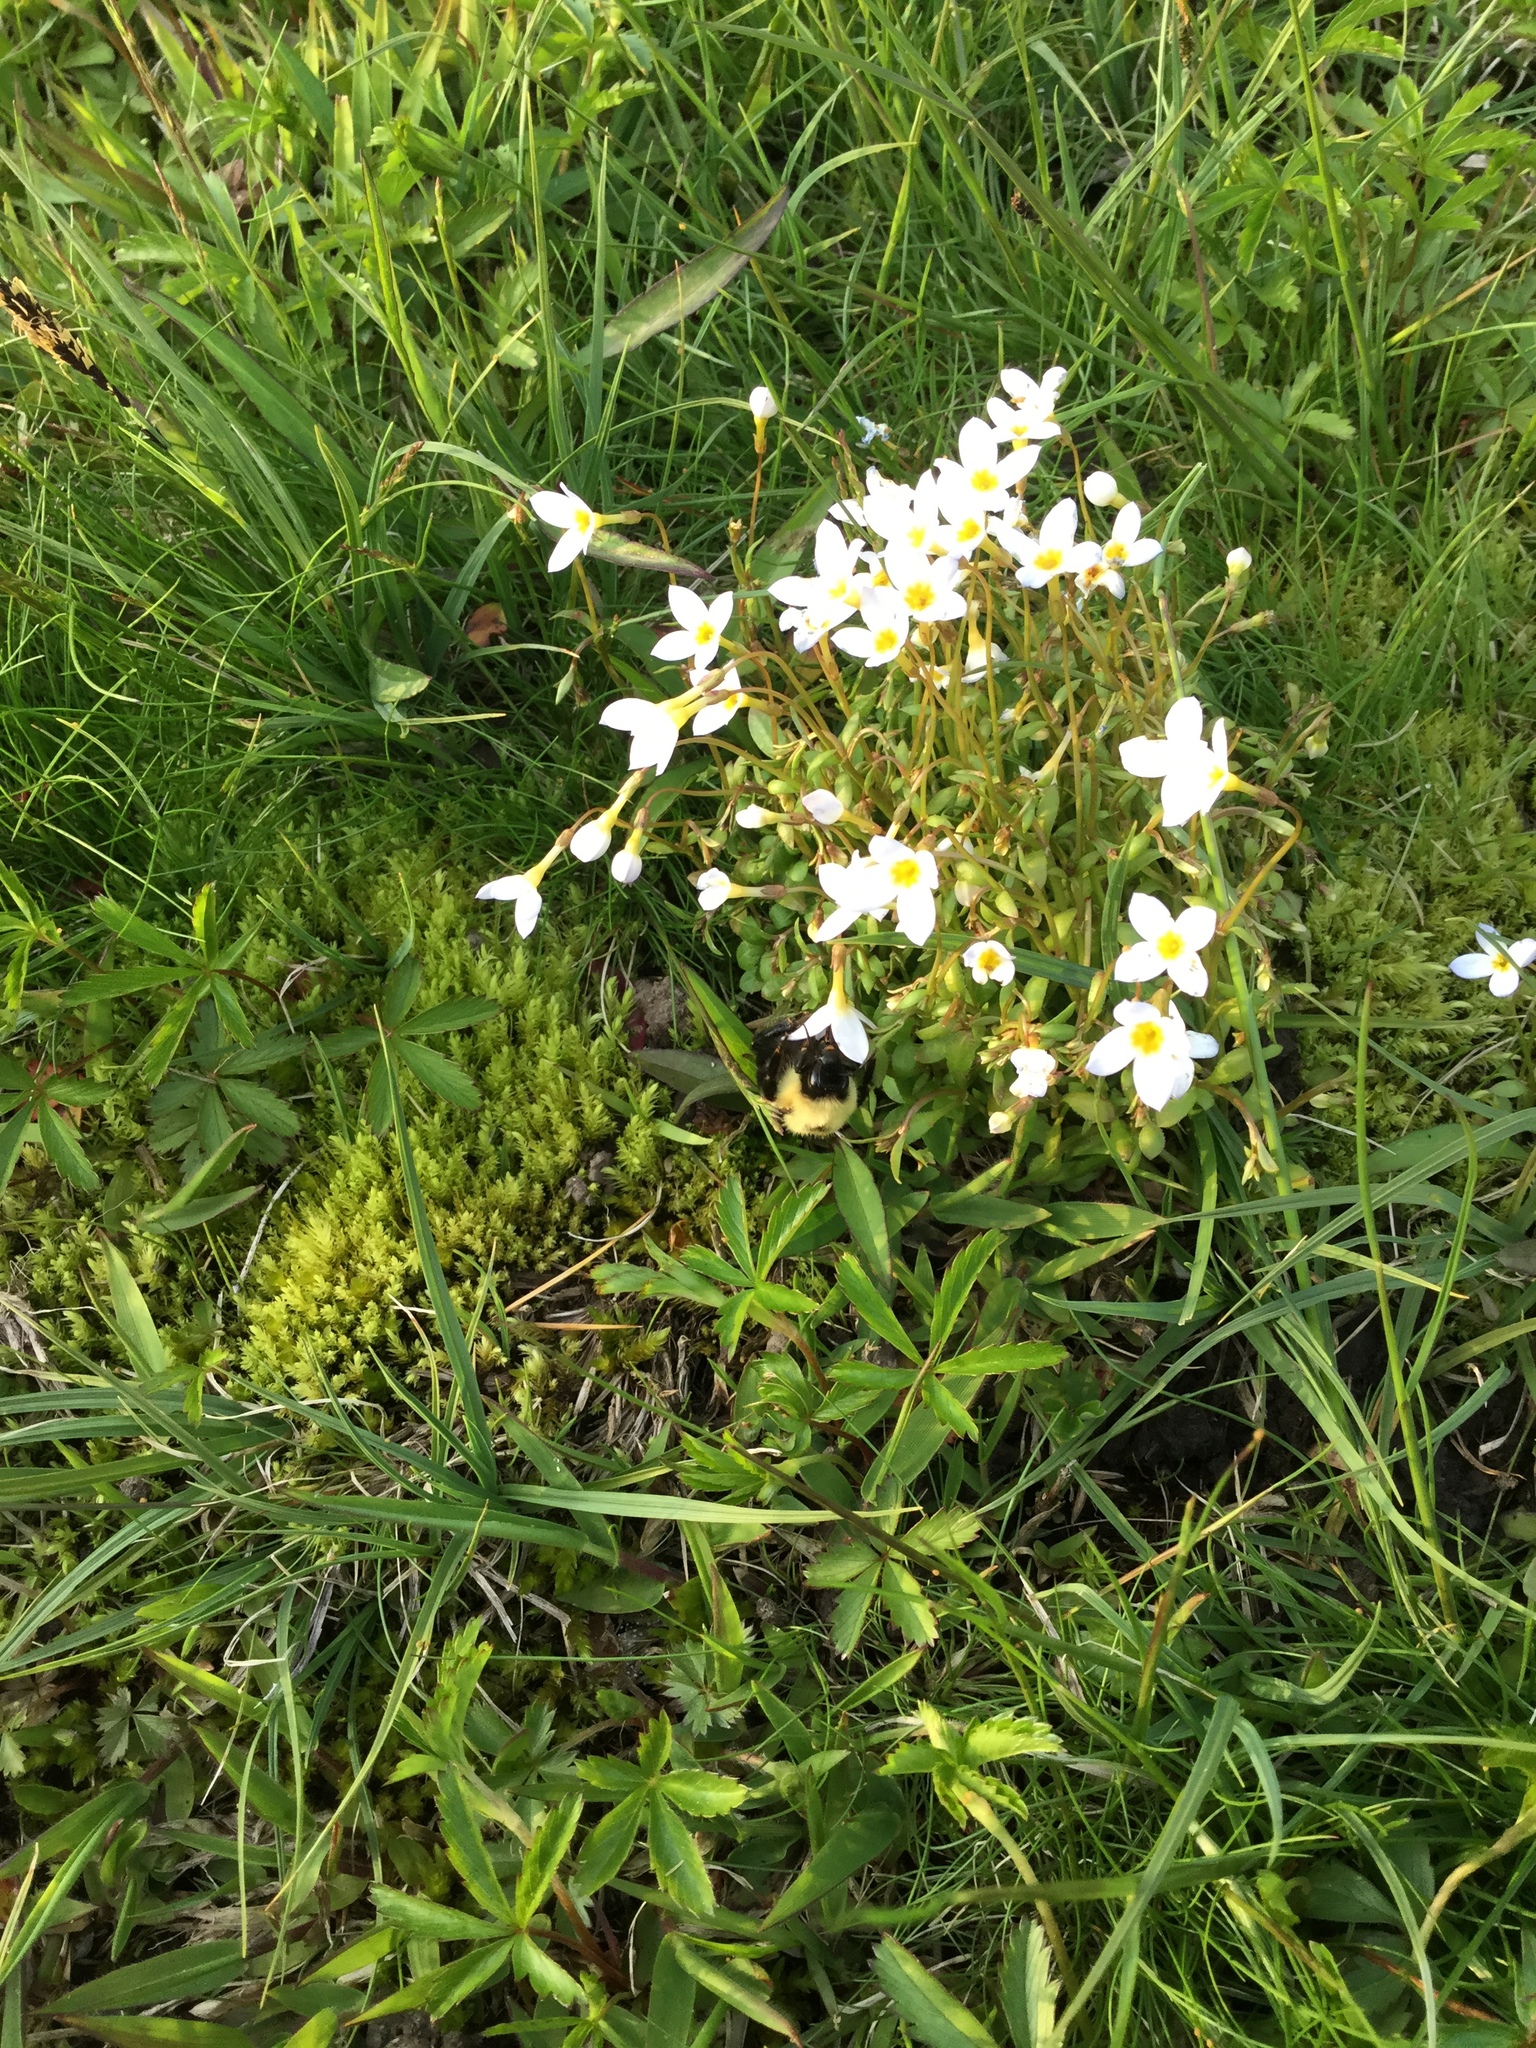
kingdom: Animalia
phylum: Arthropoda
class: Insecta
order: Hymenoptera
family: Apidae
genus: Bombus
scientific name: Bombus bimaculatus
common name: Two-spotted bumble bee
